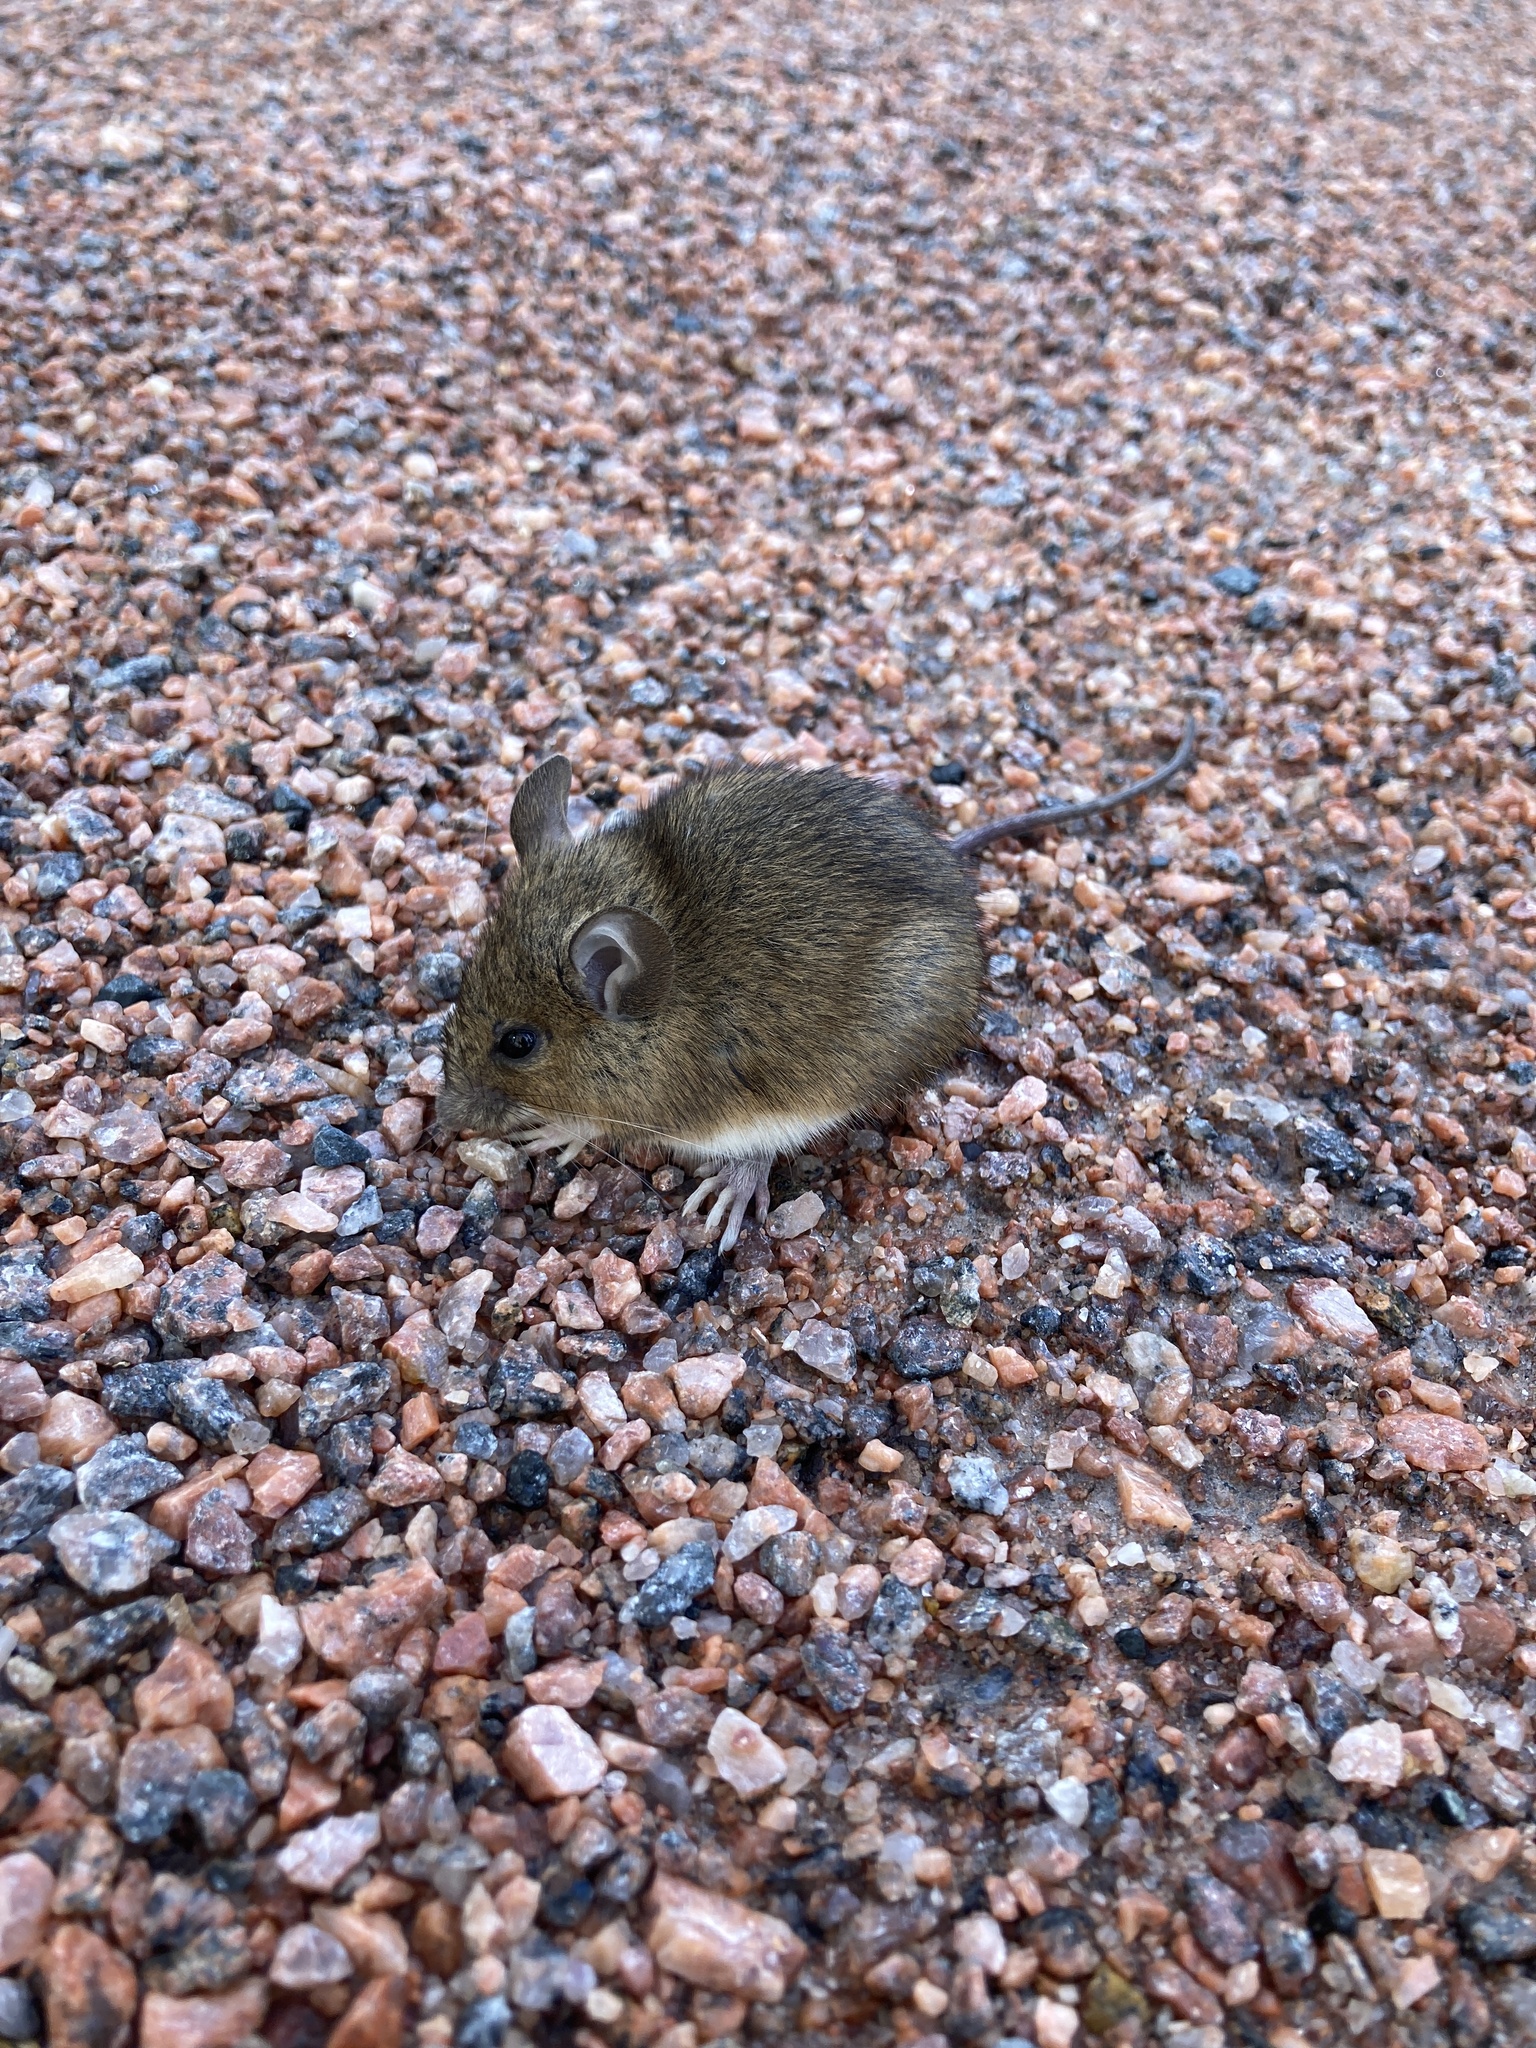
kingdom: Animalia
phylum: Chordata
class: Mammalia
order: Rodentia
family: Muridae
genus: Apodemus
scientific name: Apodemus flavicollis
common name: Yellow-necked field mouse
